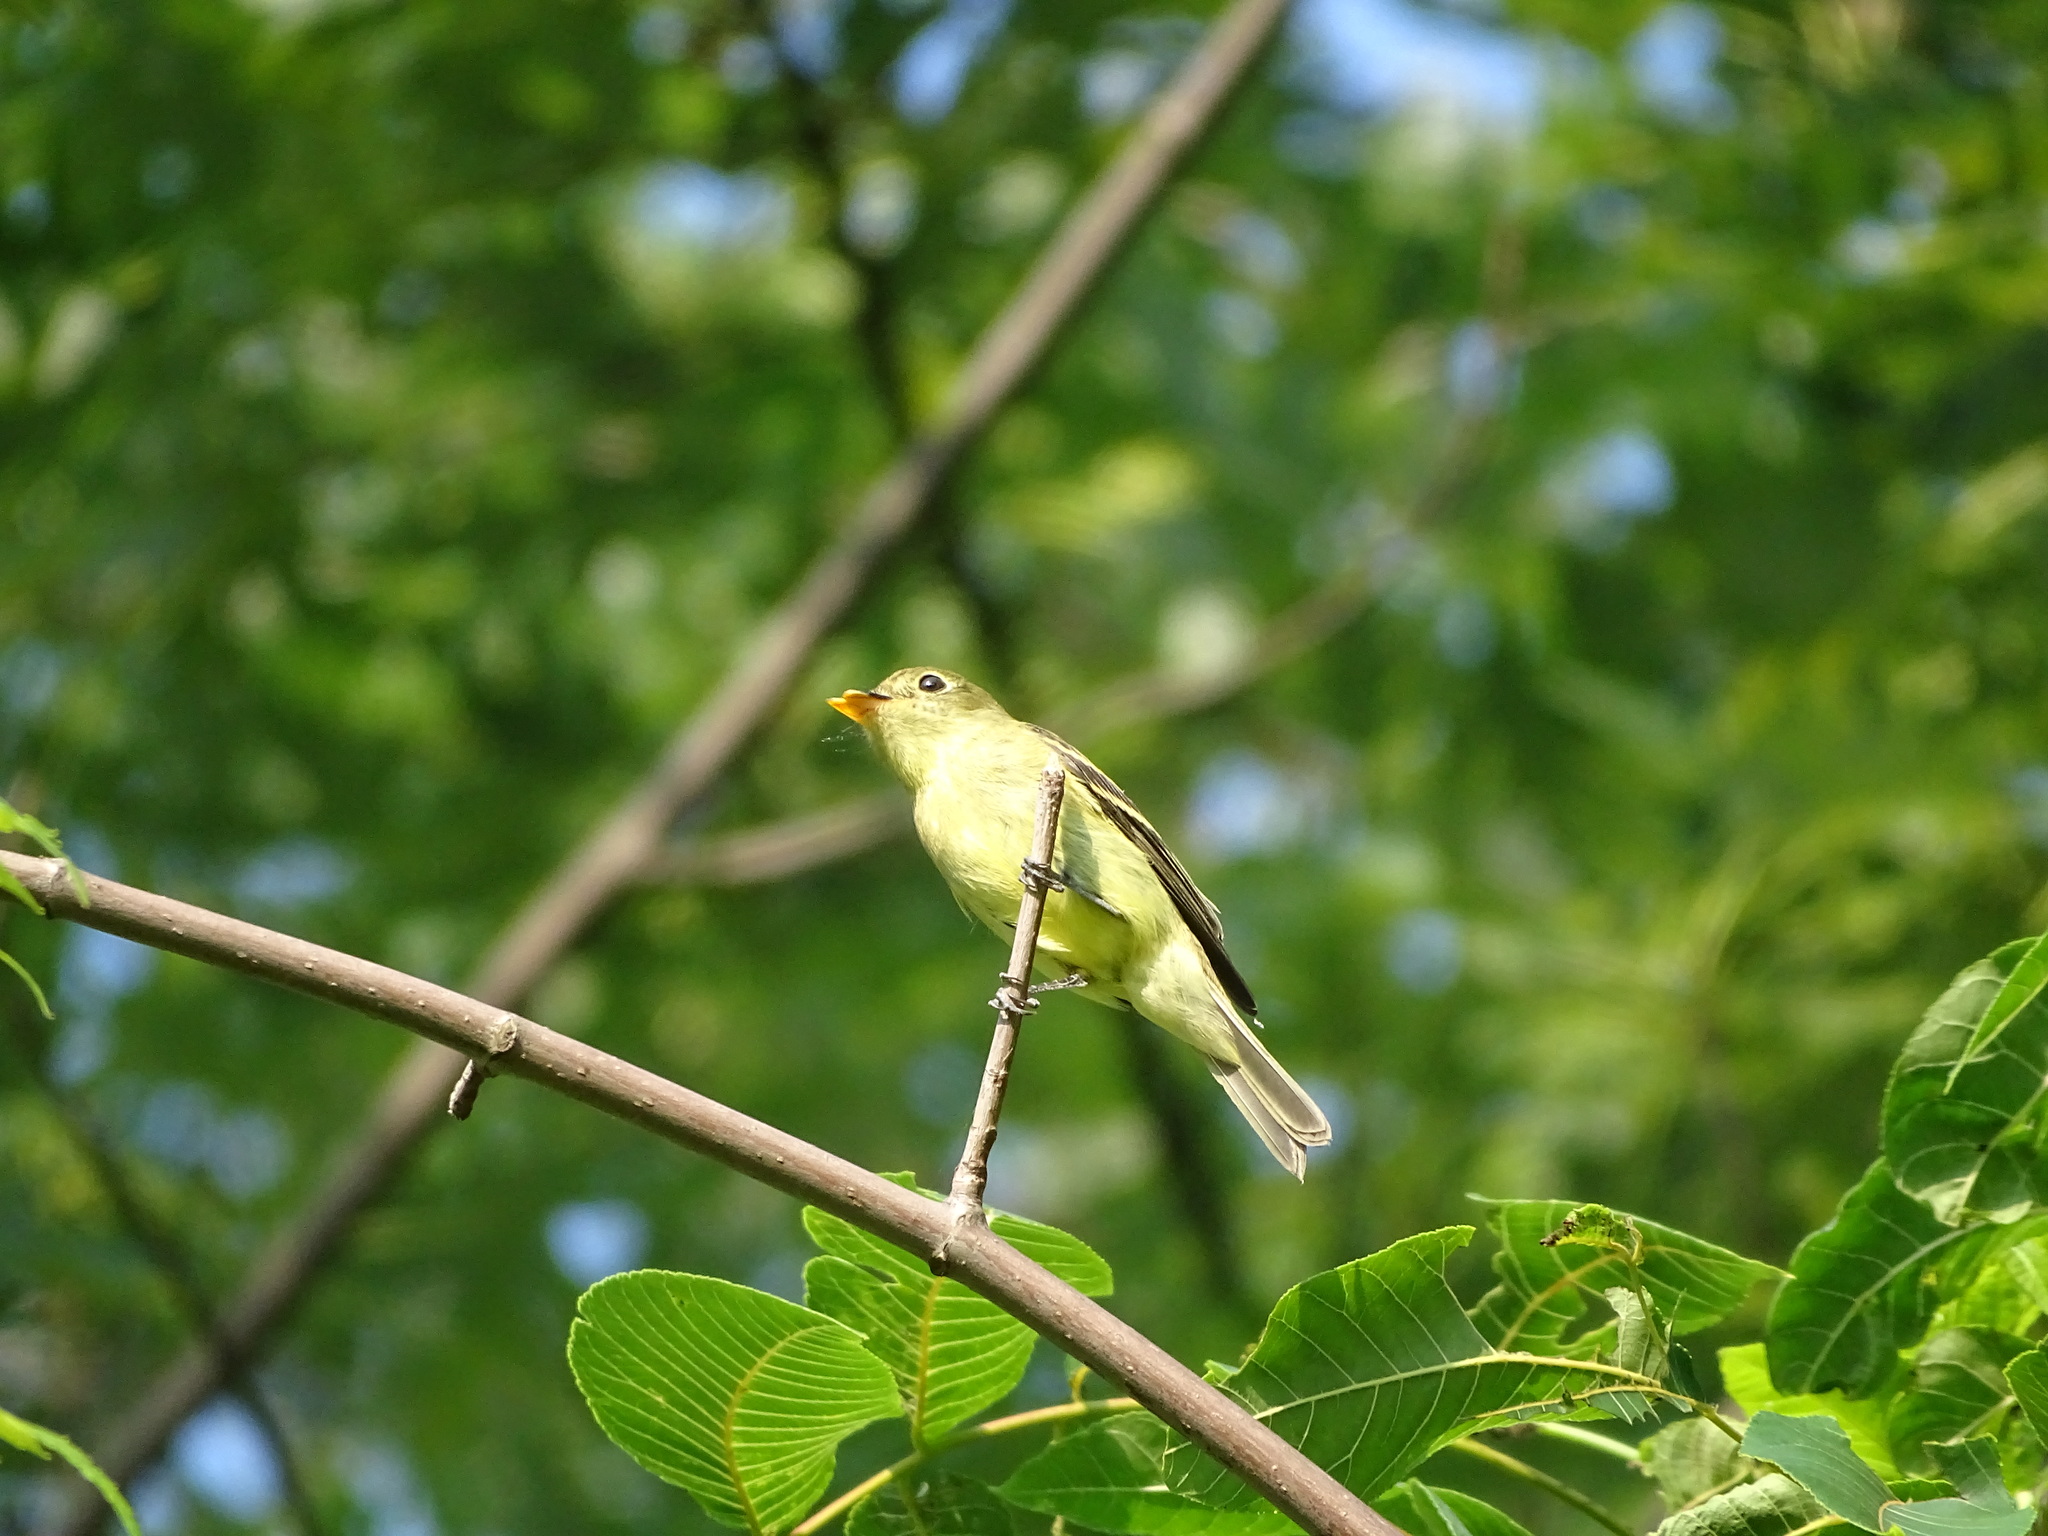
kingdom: Animalia
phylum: Chordata
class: Aves
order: Passeriformes
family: Tyrannidae
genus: Empidonax
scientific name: Empidonax flaviventris
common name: Yellow-bellied flycatcher
